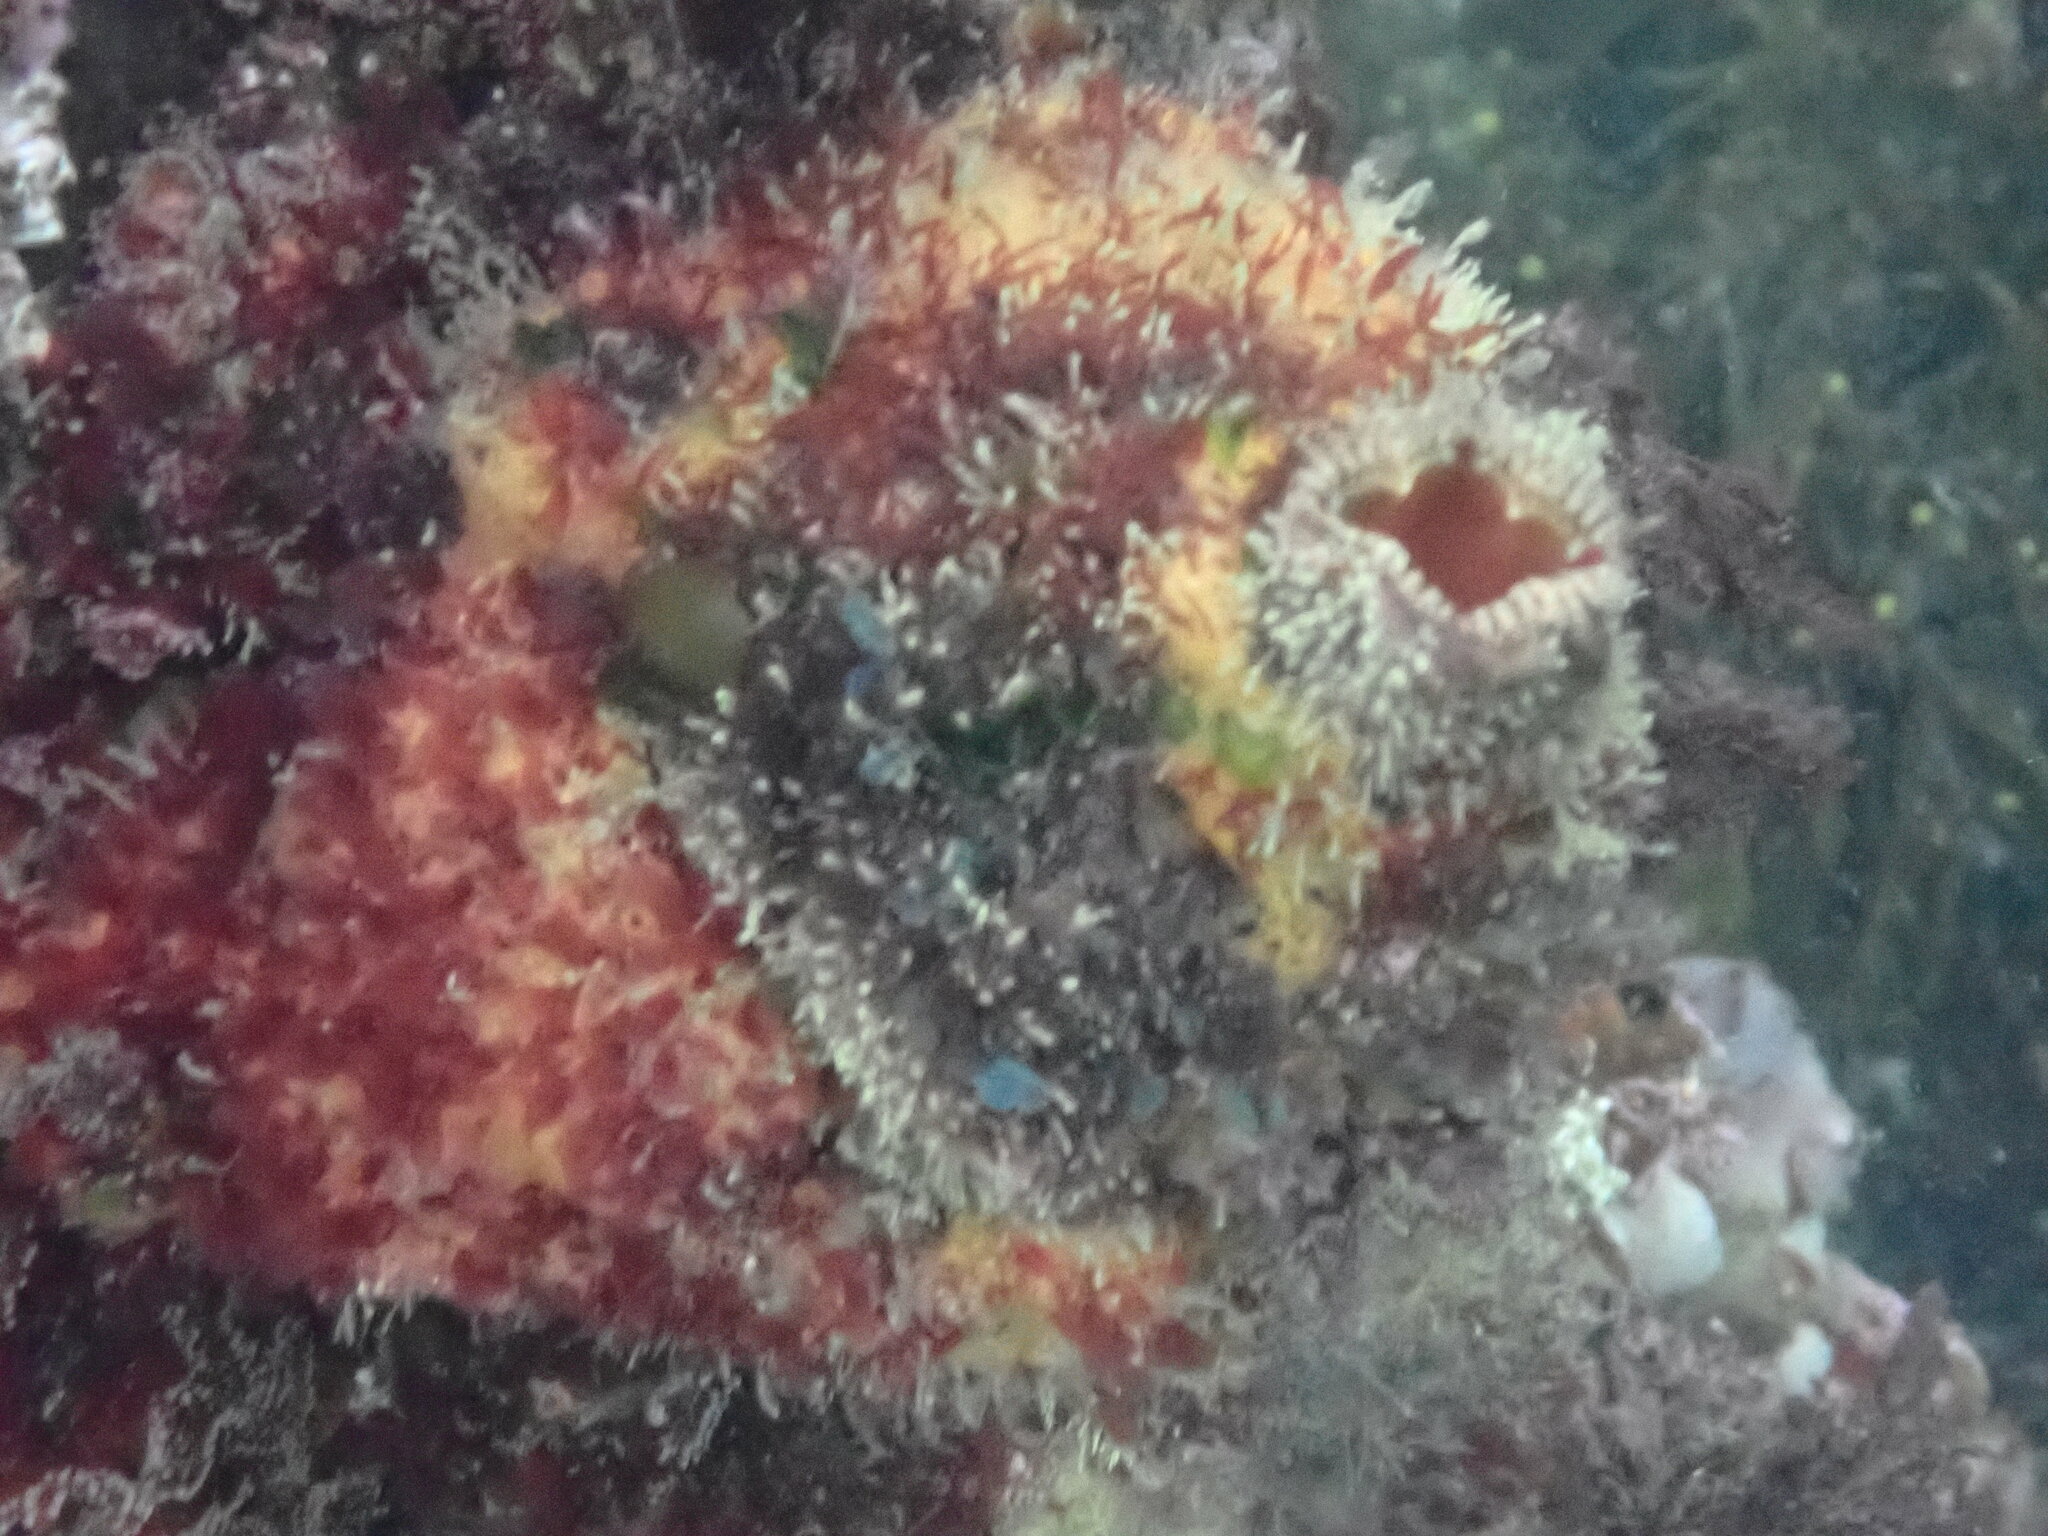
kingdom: Animalia
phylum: Chordata
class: Ascidiacea
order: Stolidobranchia
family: Pyuridae
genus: Pyura
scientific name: Pyura praeputialis
